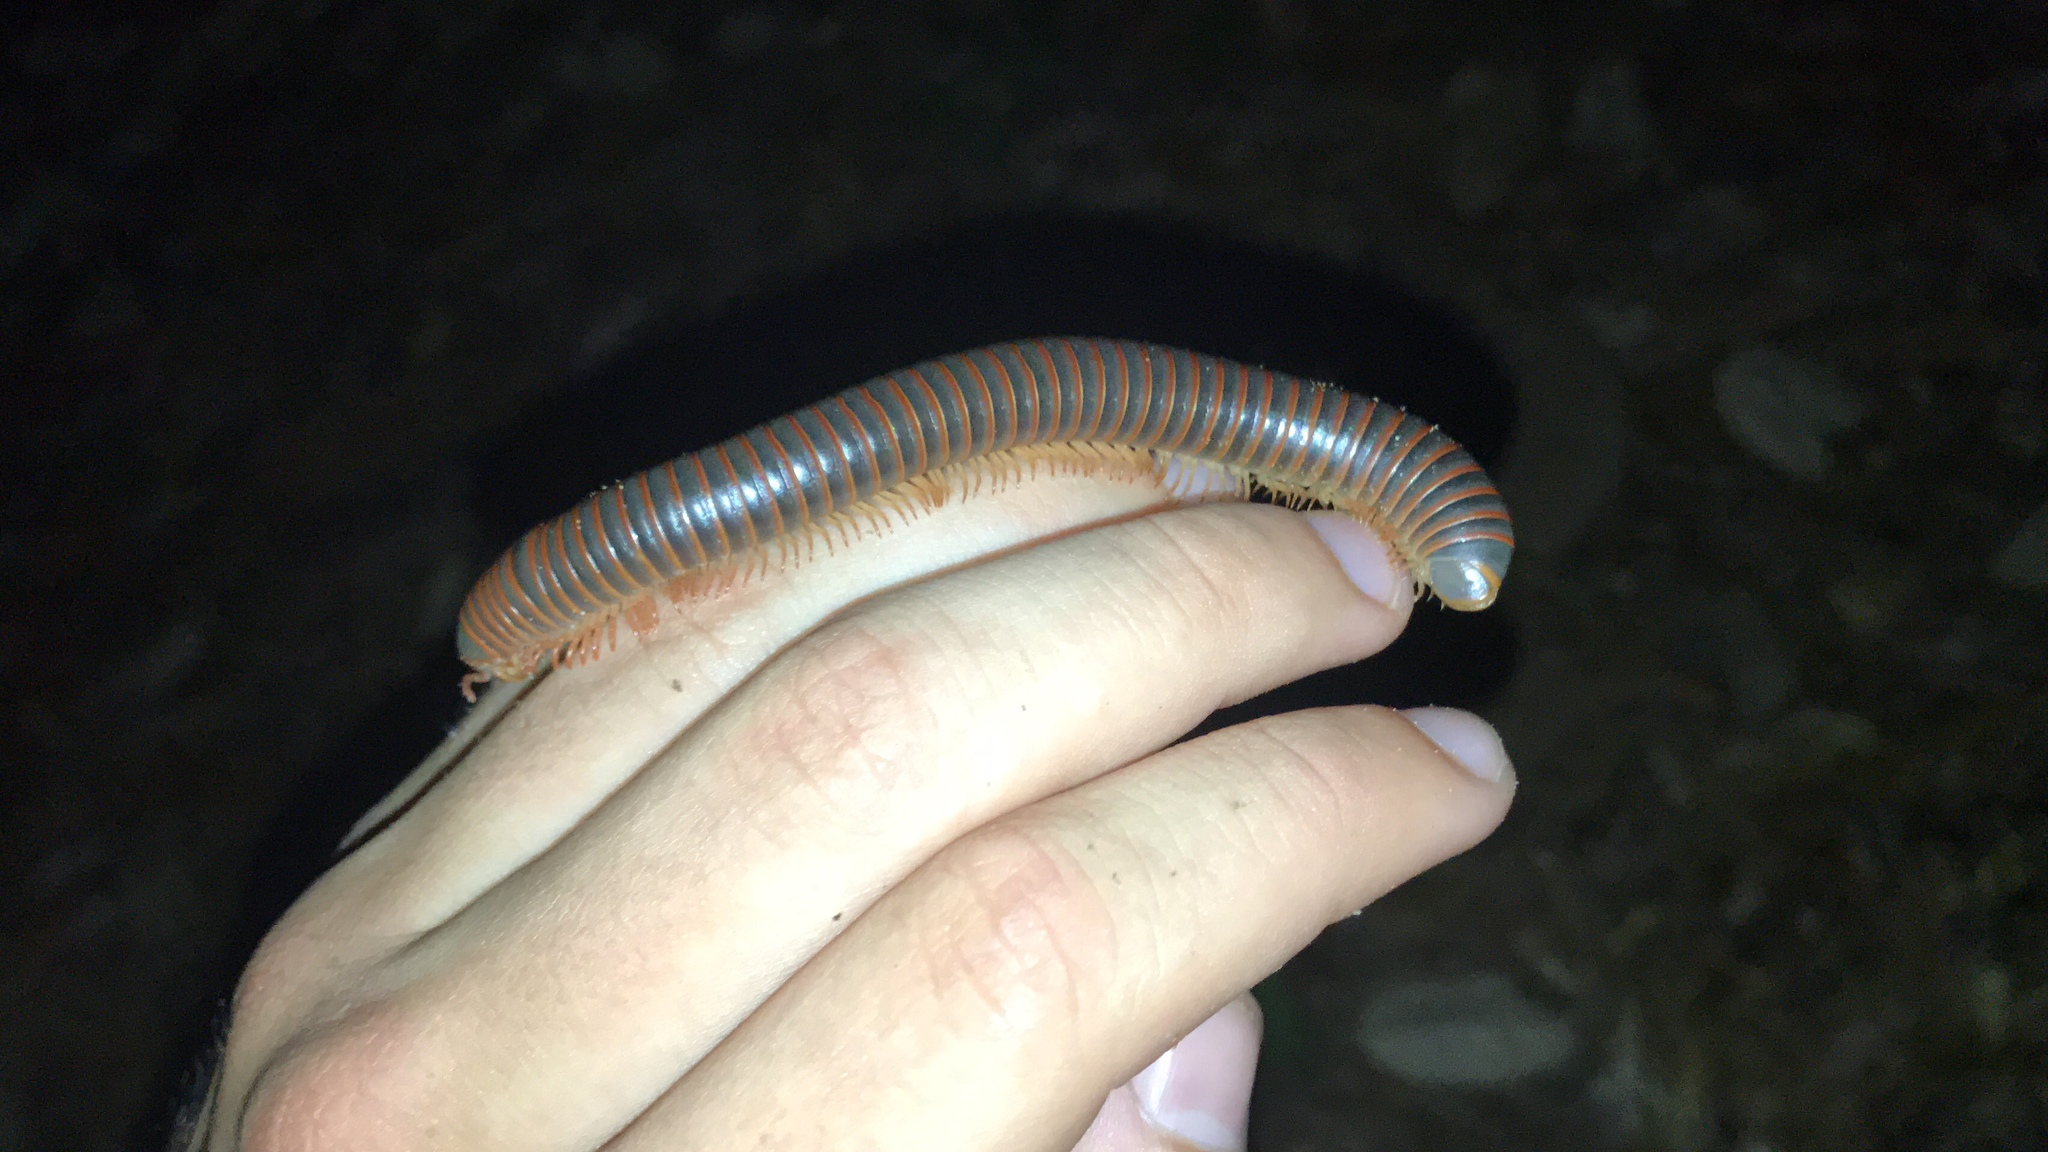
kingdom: Animalia
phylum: Arthropoda
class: Diplopoda
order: Spirobolida
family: Spirobolidae
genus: Narceus
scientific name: Narceus
